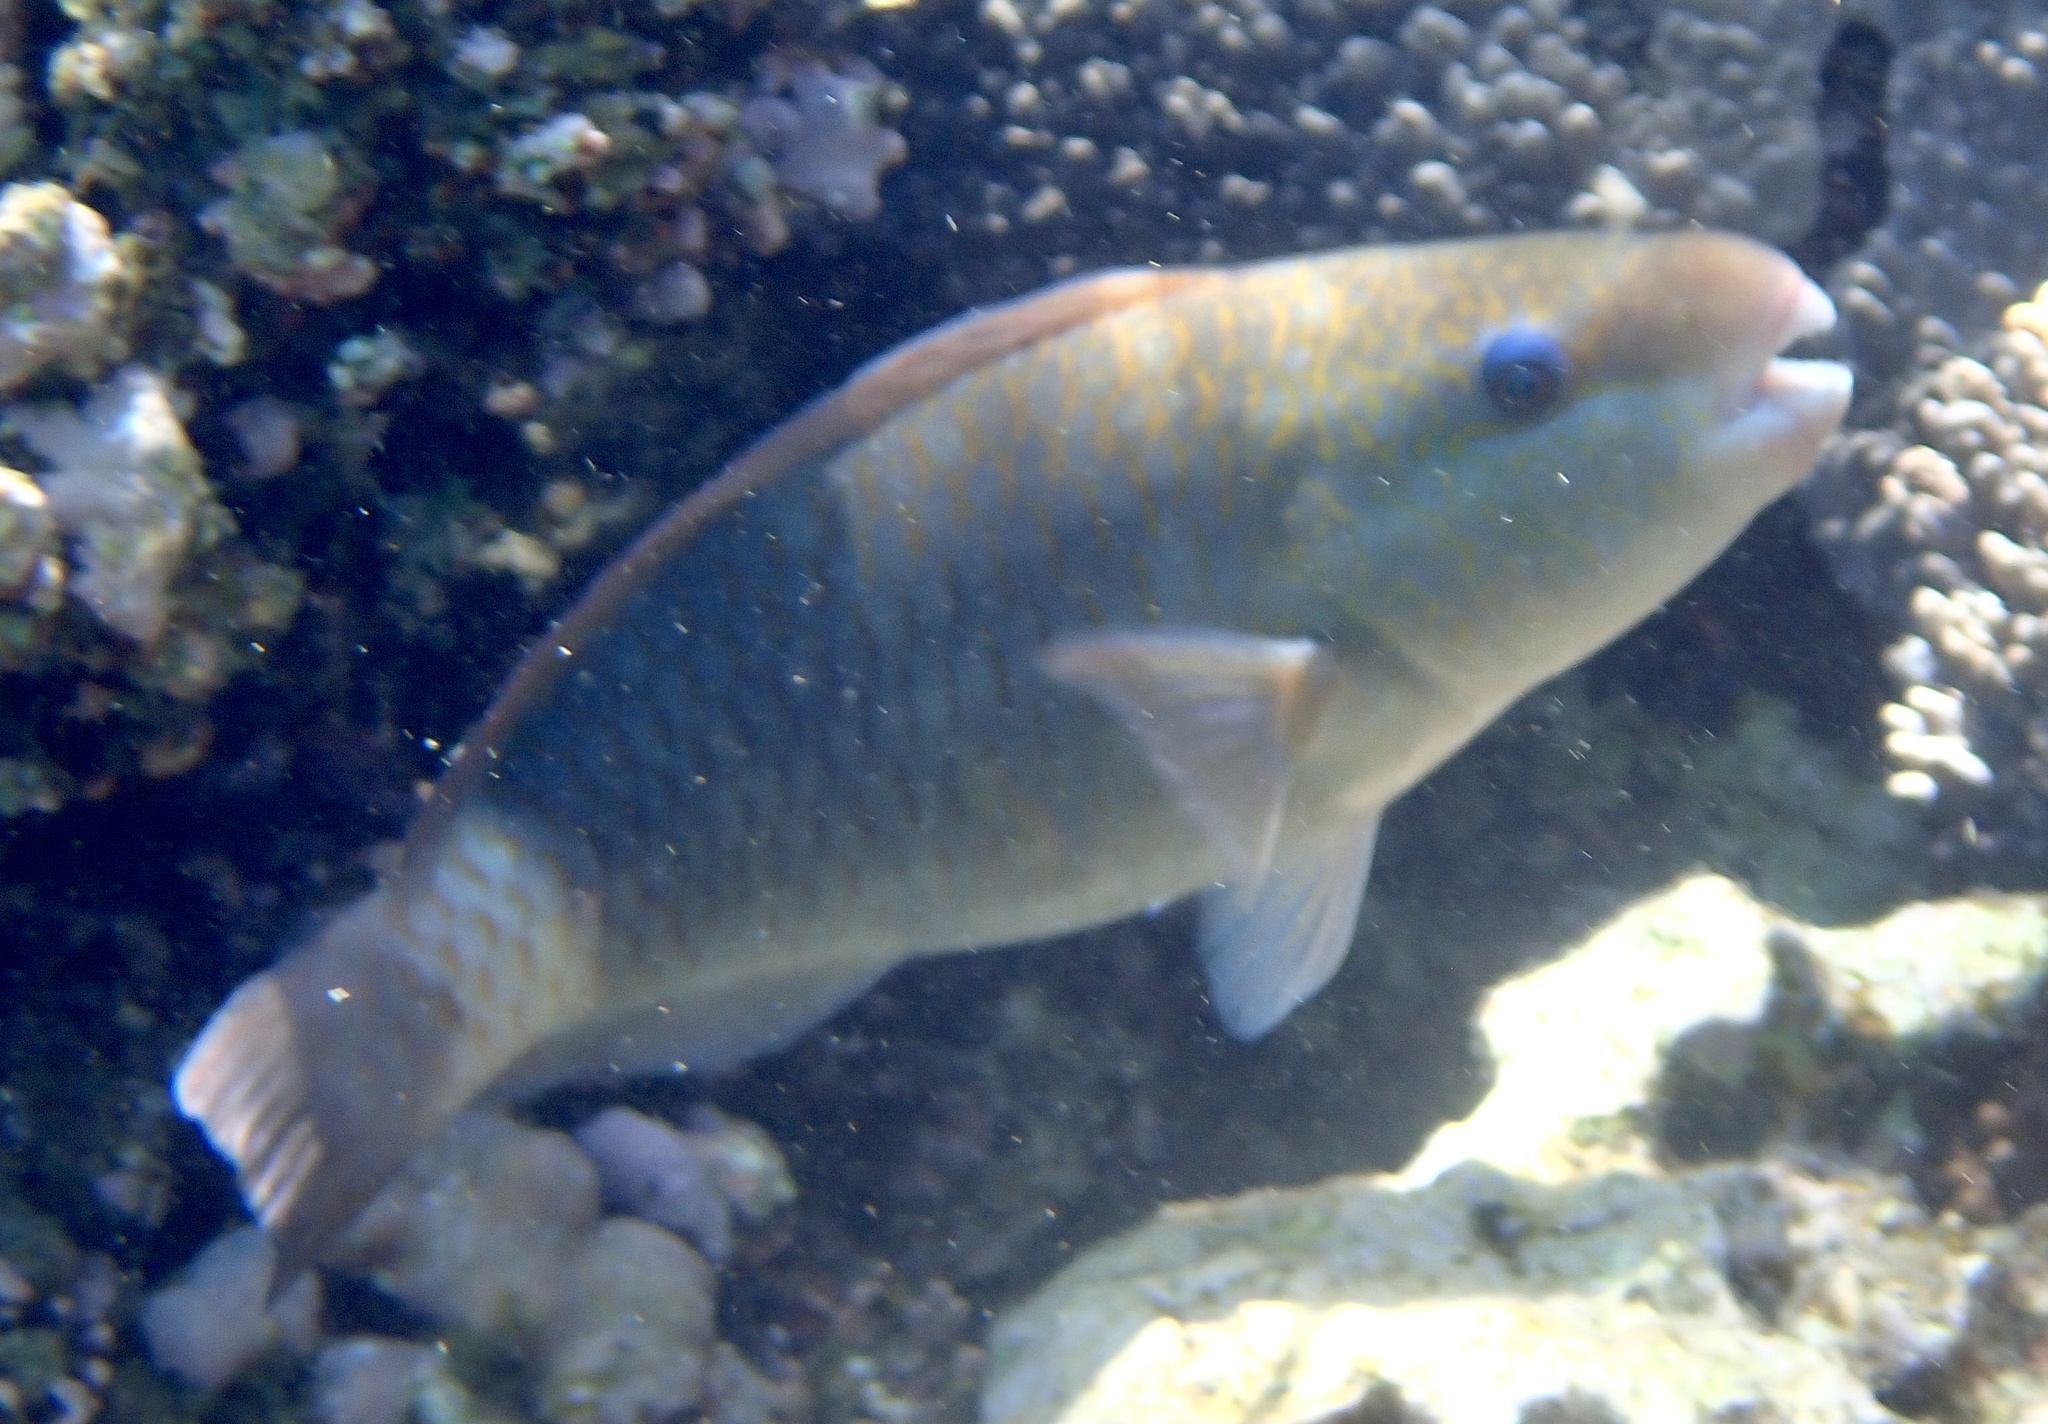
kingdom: Animalia
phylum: Chordata
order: Perciformes
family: Scaridae
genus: Chlorurus
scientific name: Chlorurus sordidus
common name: Bullethead parrotfish
